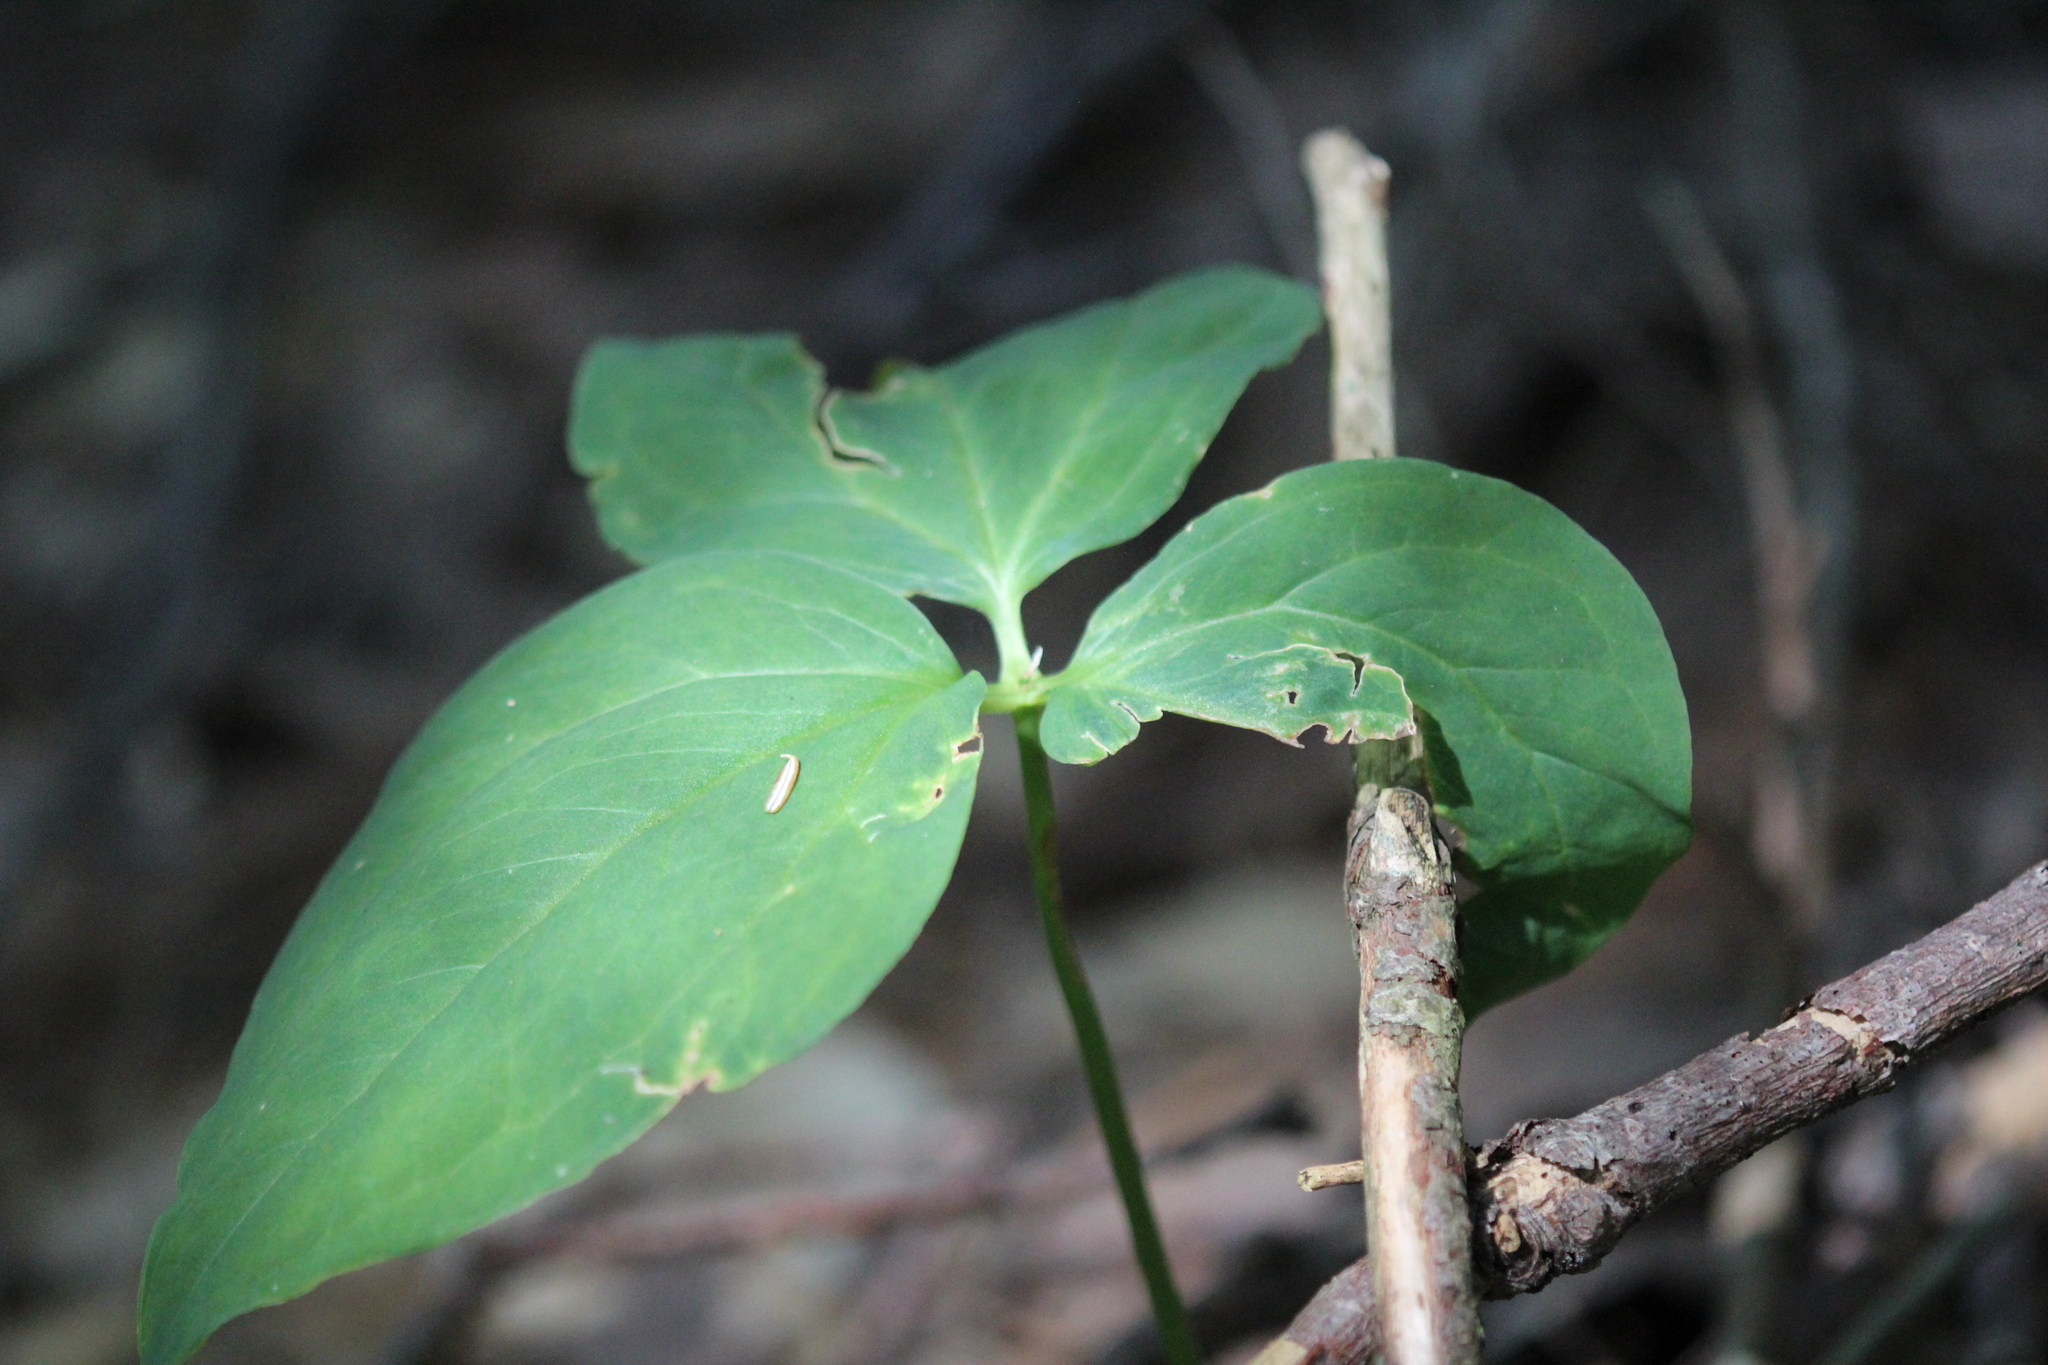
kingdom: Plantae
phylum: Tracheophyta
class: Liliopsida
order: Liliales
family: Melanthiaceae
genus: Trillium
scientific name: Trillium undulatum
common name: Paint trillium
